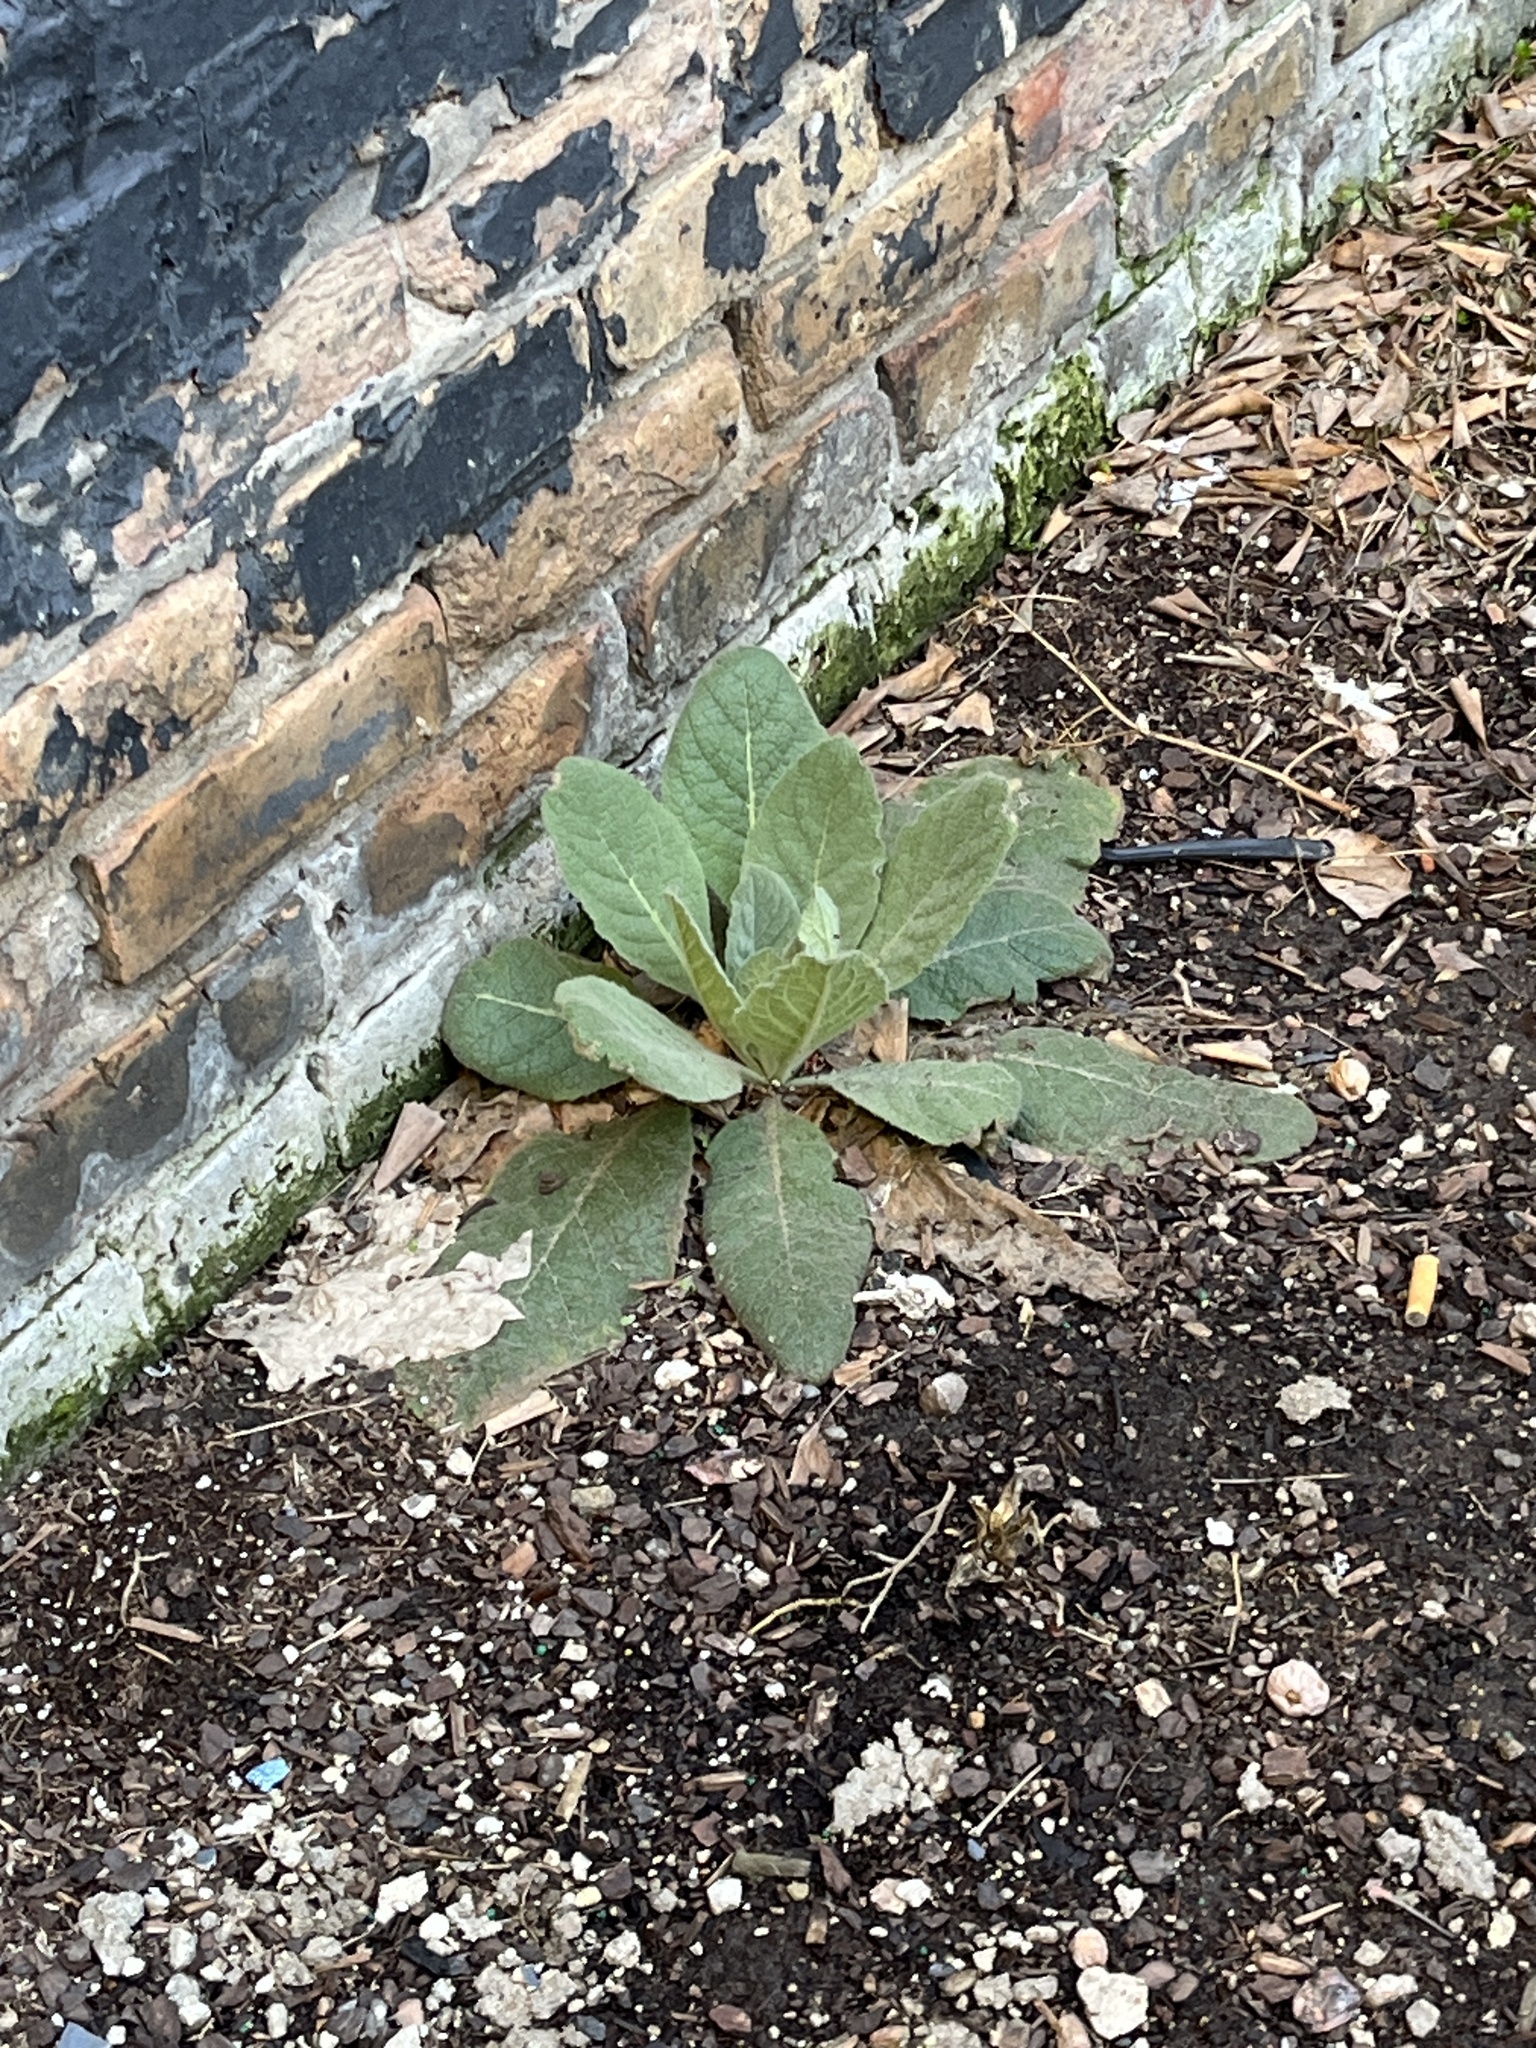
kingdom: Plantae
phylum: Tracheophyta
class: Magnoliopsida
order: Lamiales
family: Scrophulariaceae
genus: Verbascum
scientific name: Verbascum thapsus
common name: Common mullein
